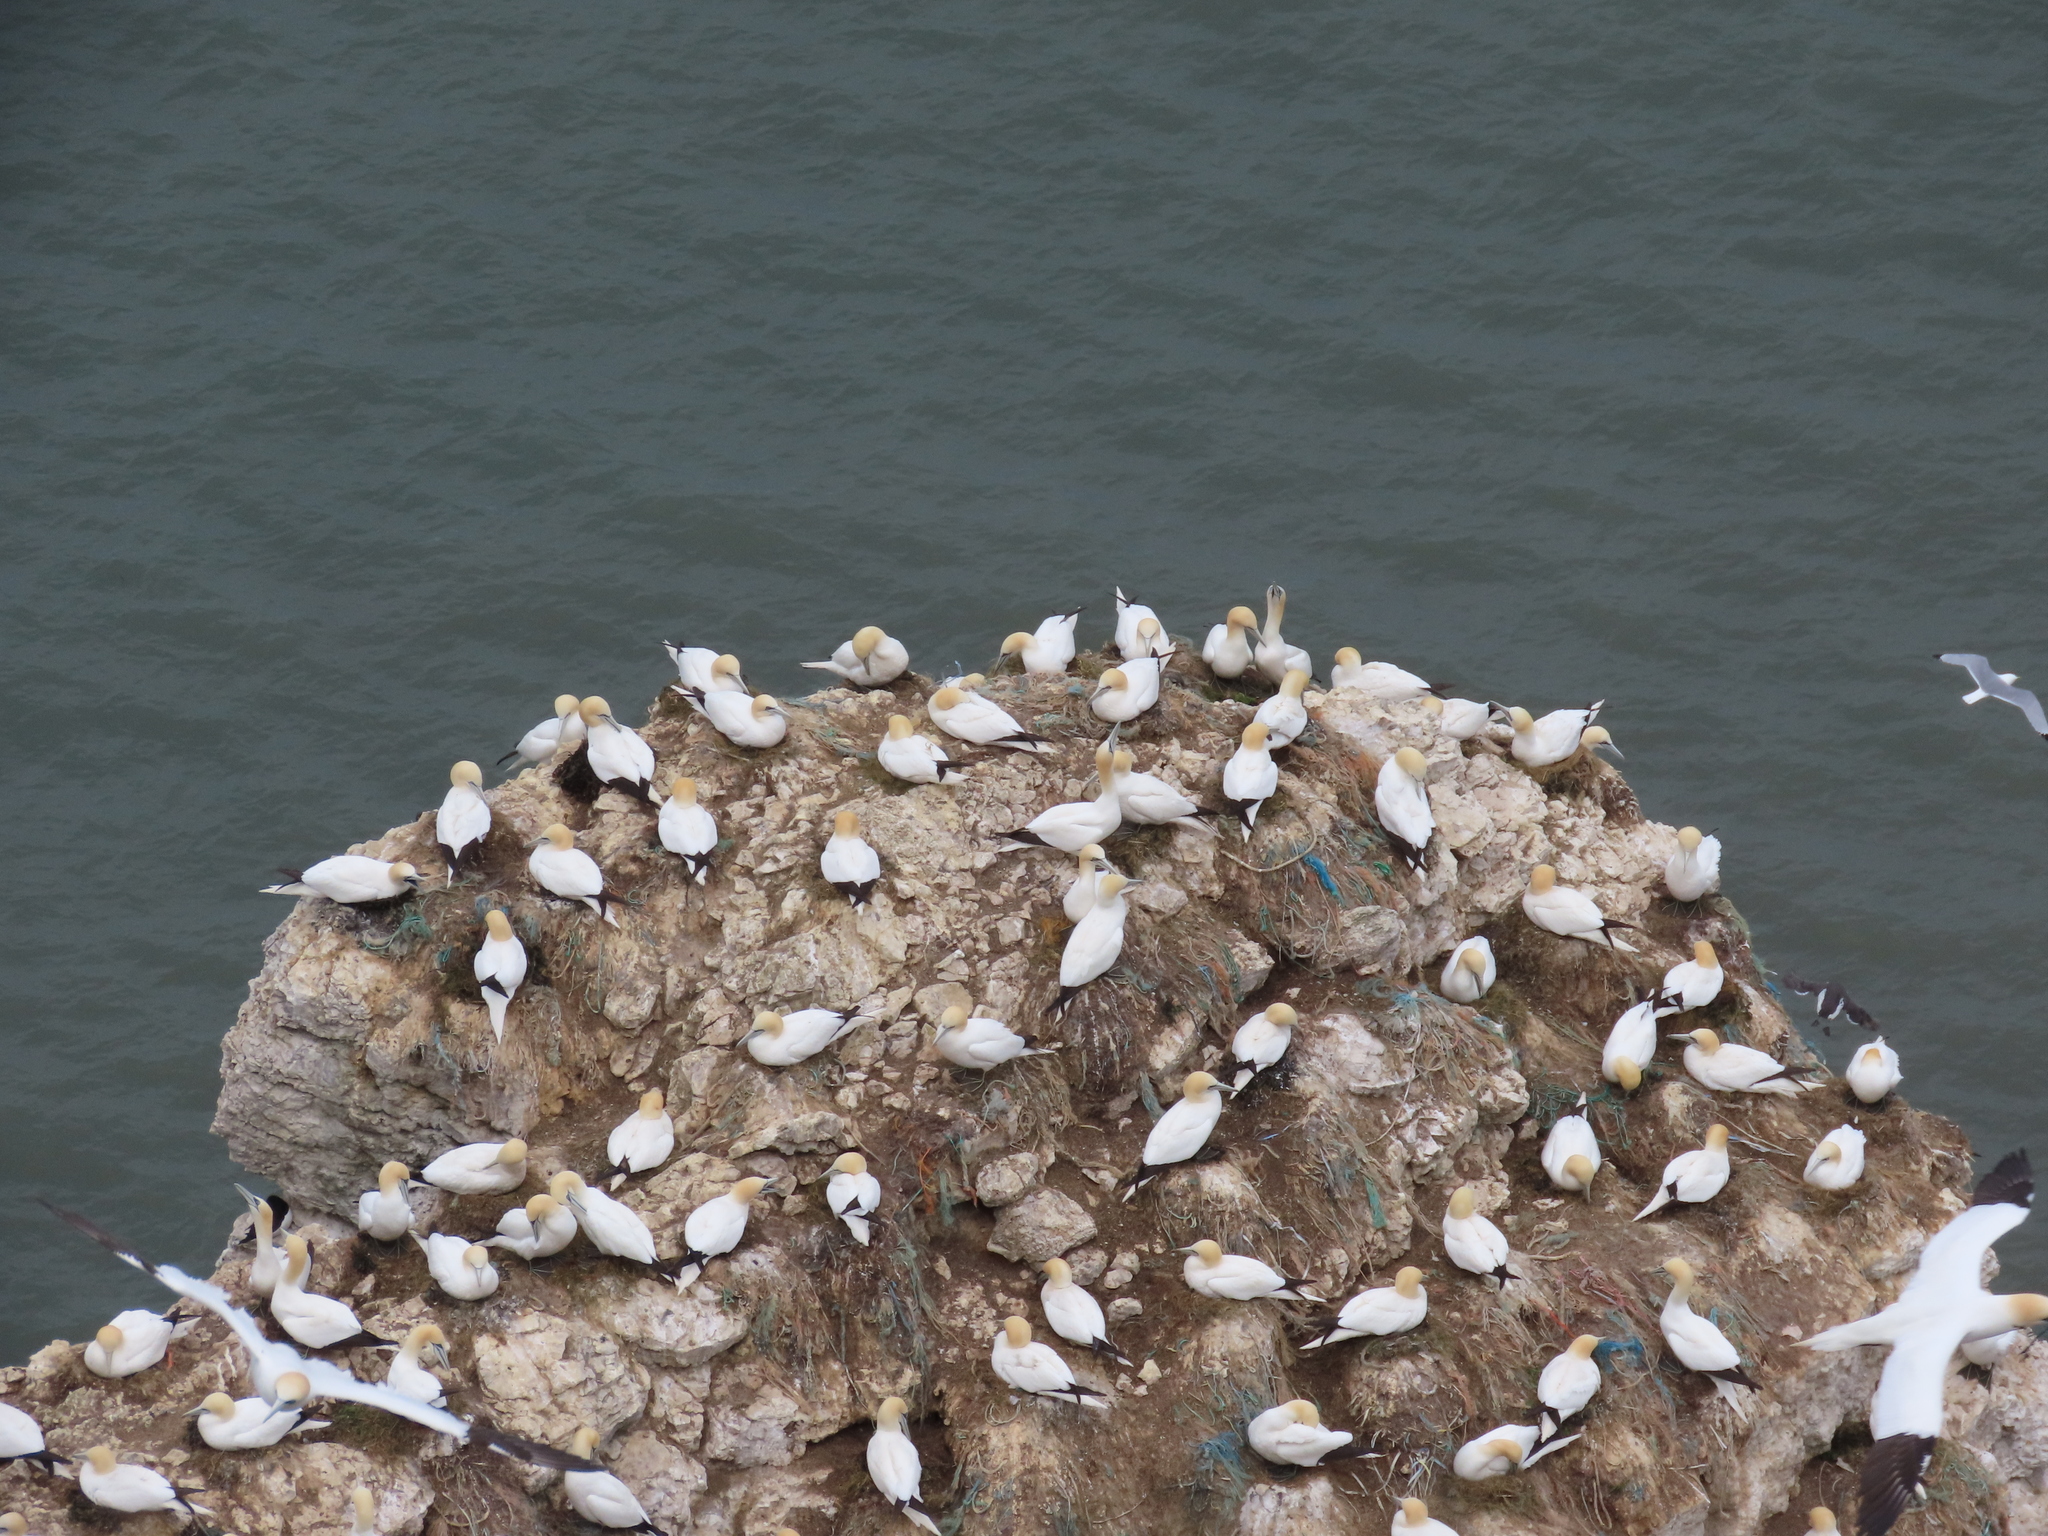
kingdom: Animalia
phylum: Chordata
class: Aves
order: Suliformes
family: Sulidae
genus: Morus
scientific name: Morus bassanus
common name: Northern gannet
